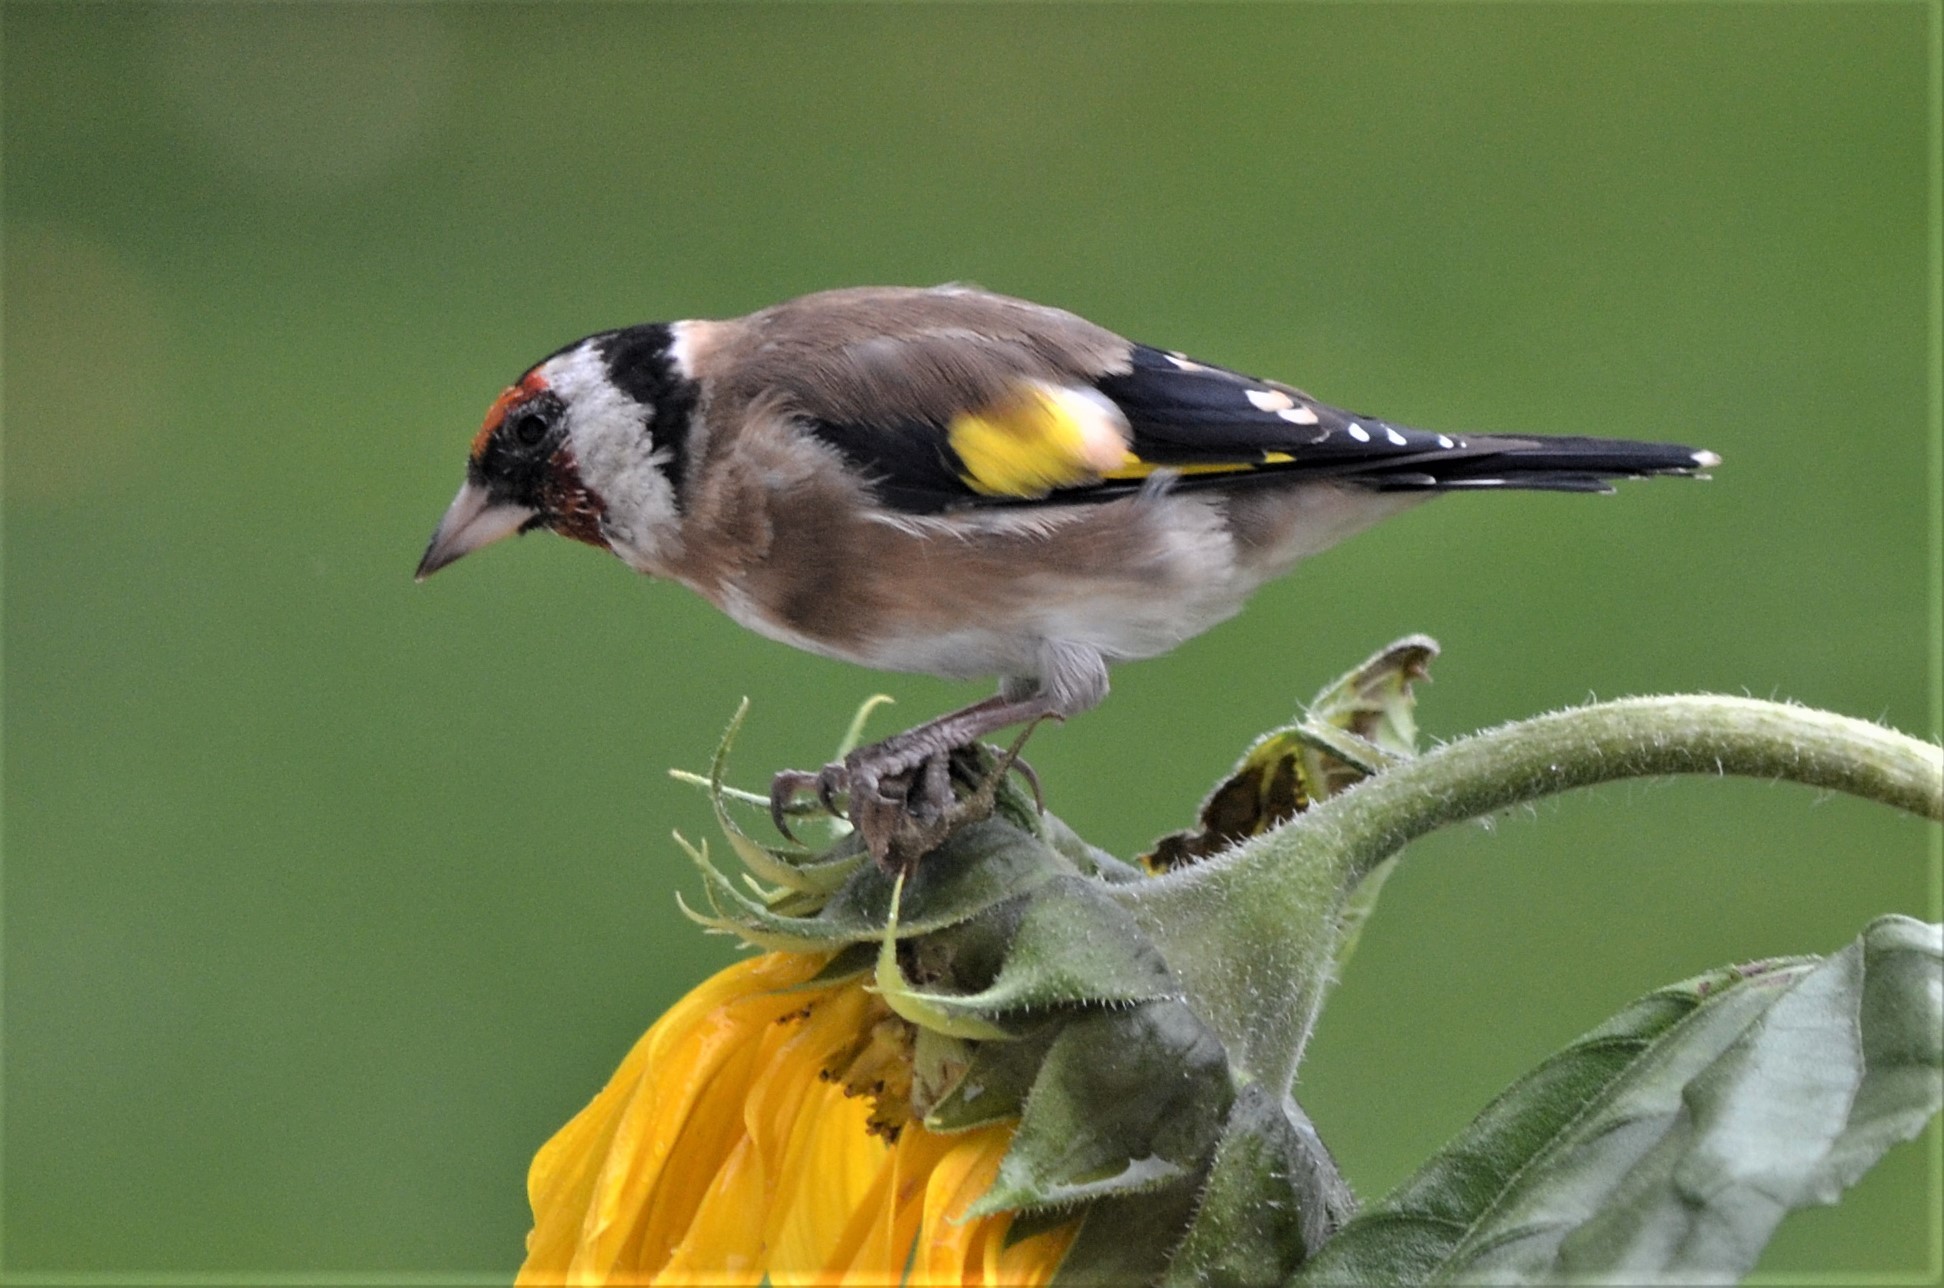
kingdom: Animalia
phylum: Chordata
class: Aves
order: Passeriformes
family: Fringillidae
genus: Carduelis
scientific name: Carduelis carduelis
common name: European goldfinch
